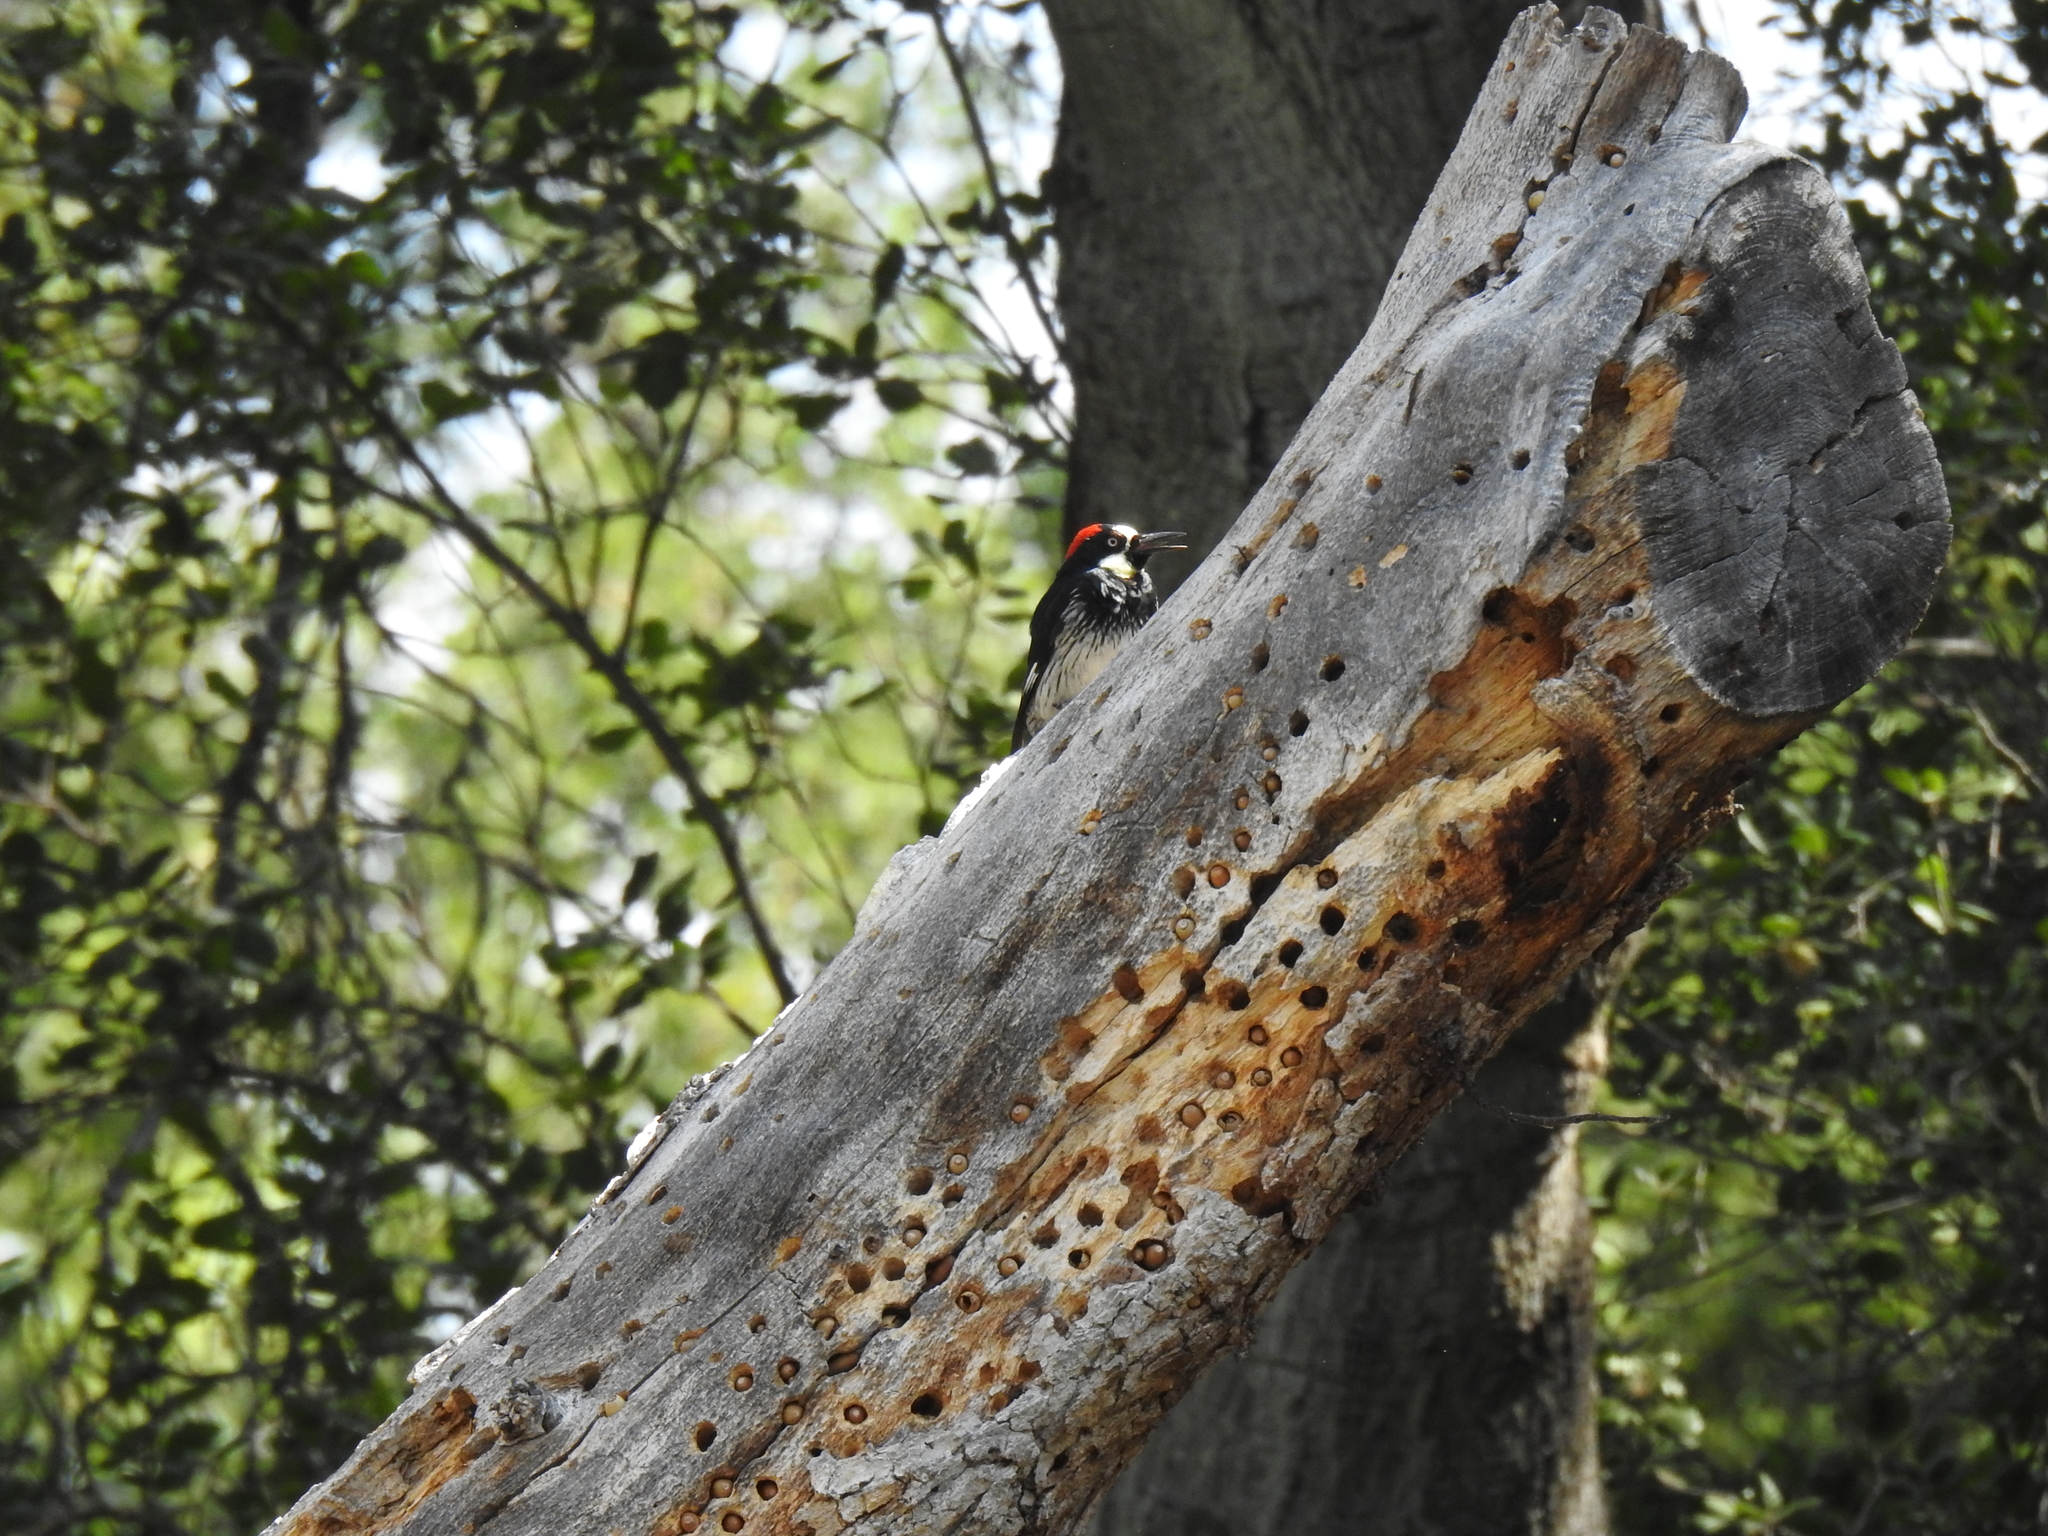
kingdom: Animalia
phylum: Chordata
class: Aves
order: Piciformes
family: Picidae
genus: Melanerpes
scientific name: Melanerpes formicivorus
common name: Acorn woodpecker
